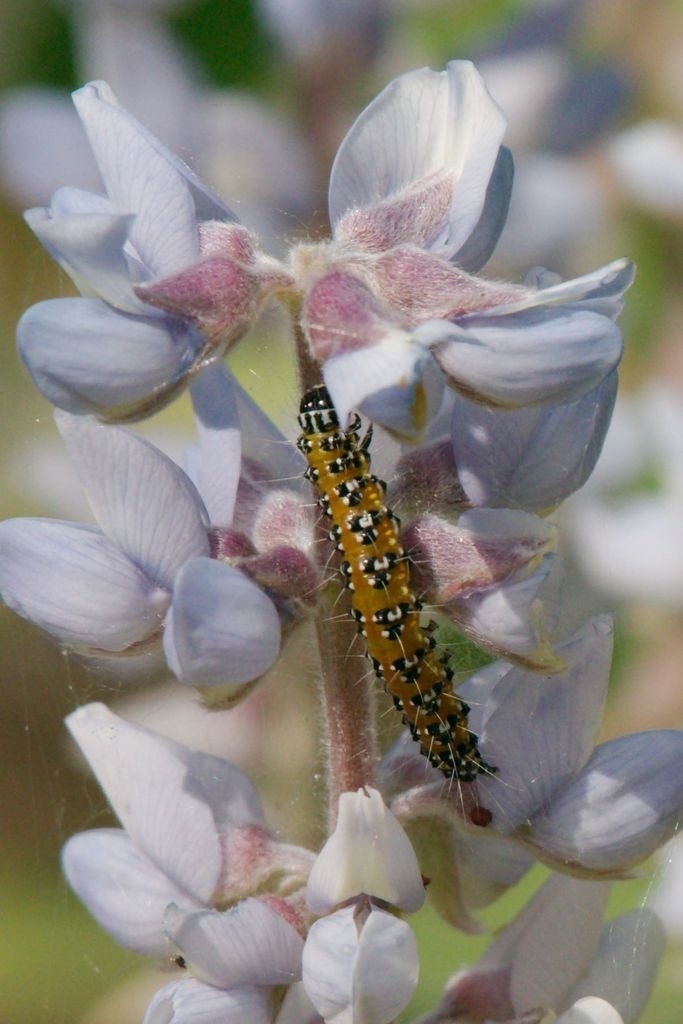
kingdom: Animalia
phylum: Arthropoda
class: Insecta
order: Lepidoptera
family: Crambidae
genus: Uresiphita
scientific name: Uresiphita reversalis
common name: Genista broom moth
